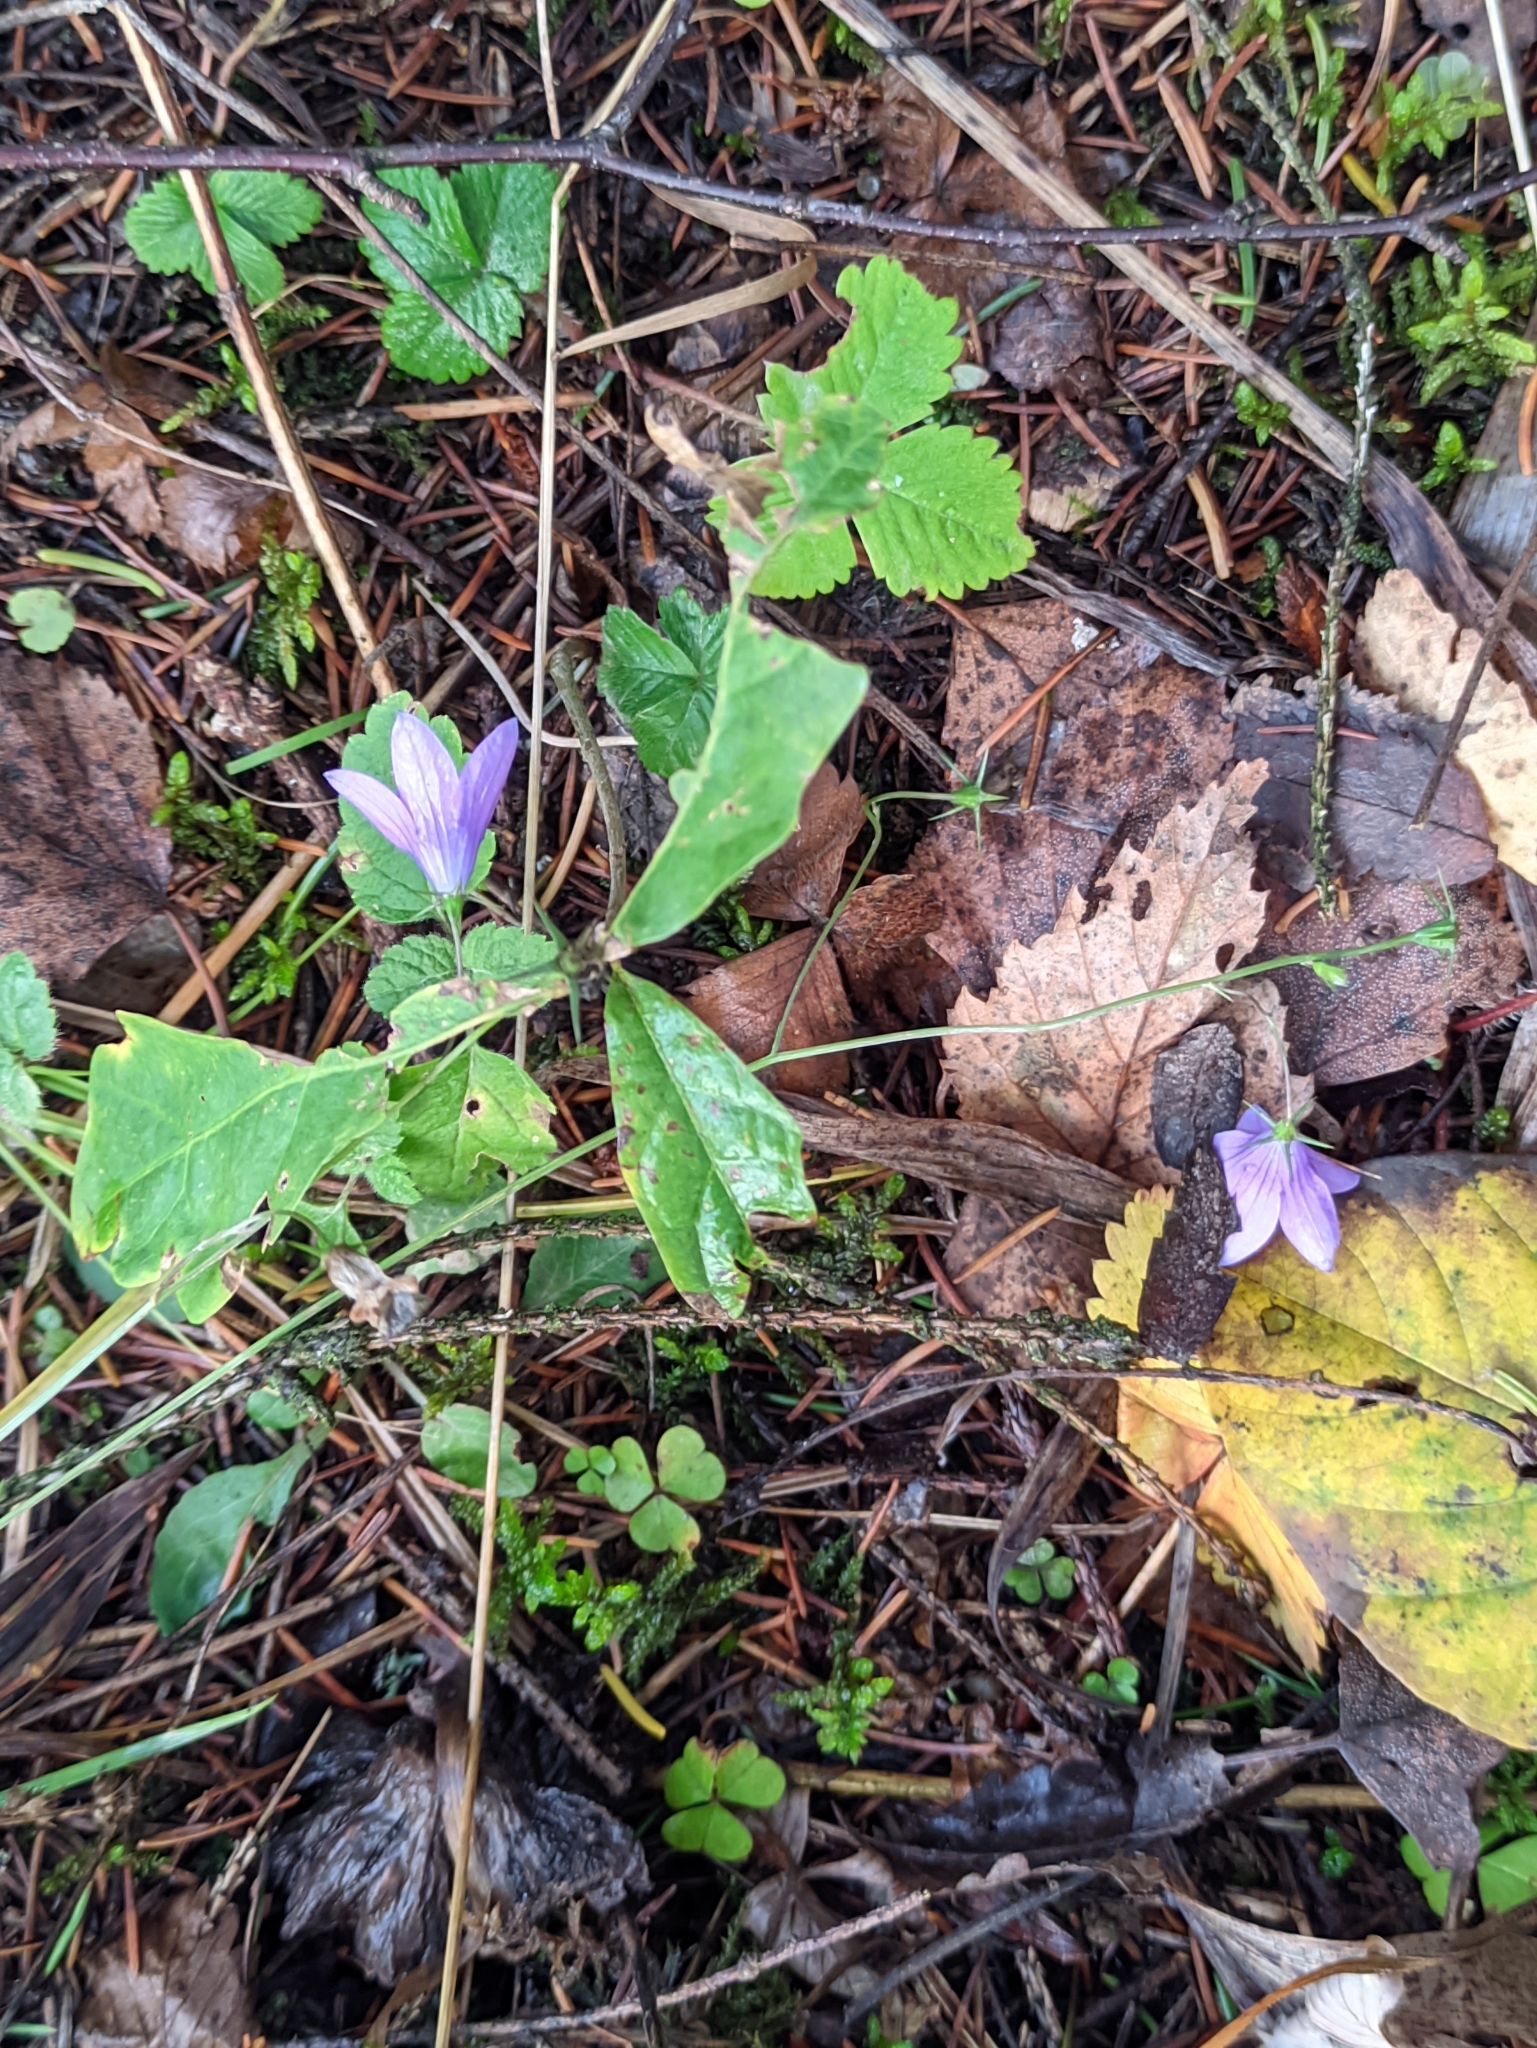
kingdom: Plantae
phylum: Tracheophyta
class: Magnoliopsida
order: Asterales
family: Campanulaceae
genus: Campanula
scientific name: Campanula patula
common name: Spreading bellflower
